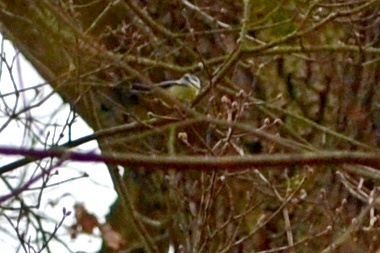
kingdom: Animalia
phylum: Chordata
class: Aves
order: Passeriformes
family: Paridae
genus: Cyanistes
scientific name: Cyanistes caeruleus
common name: Eurasian blue tit
